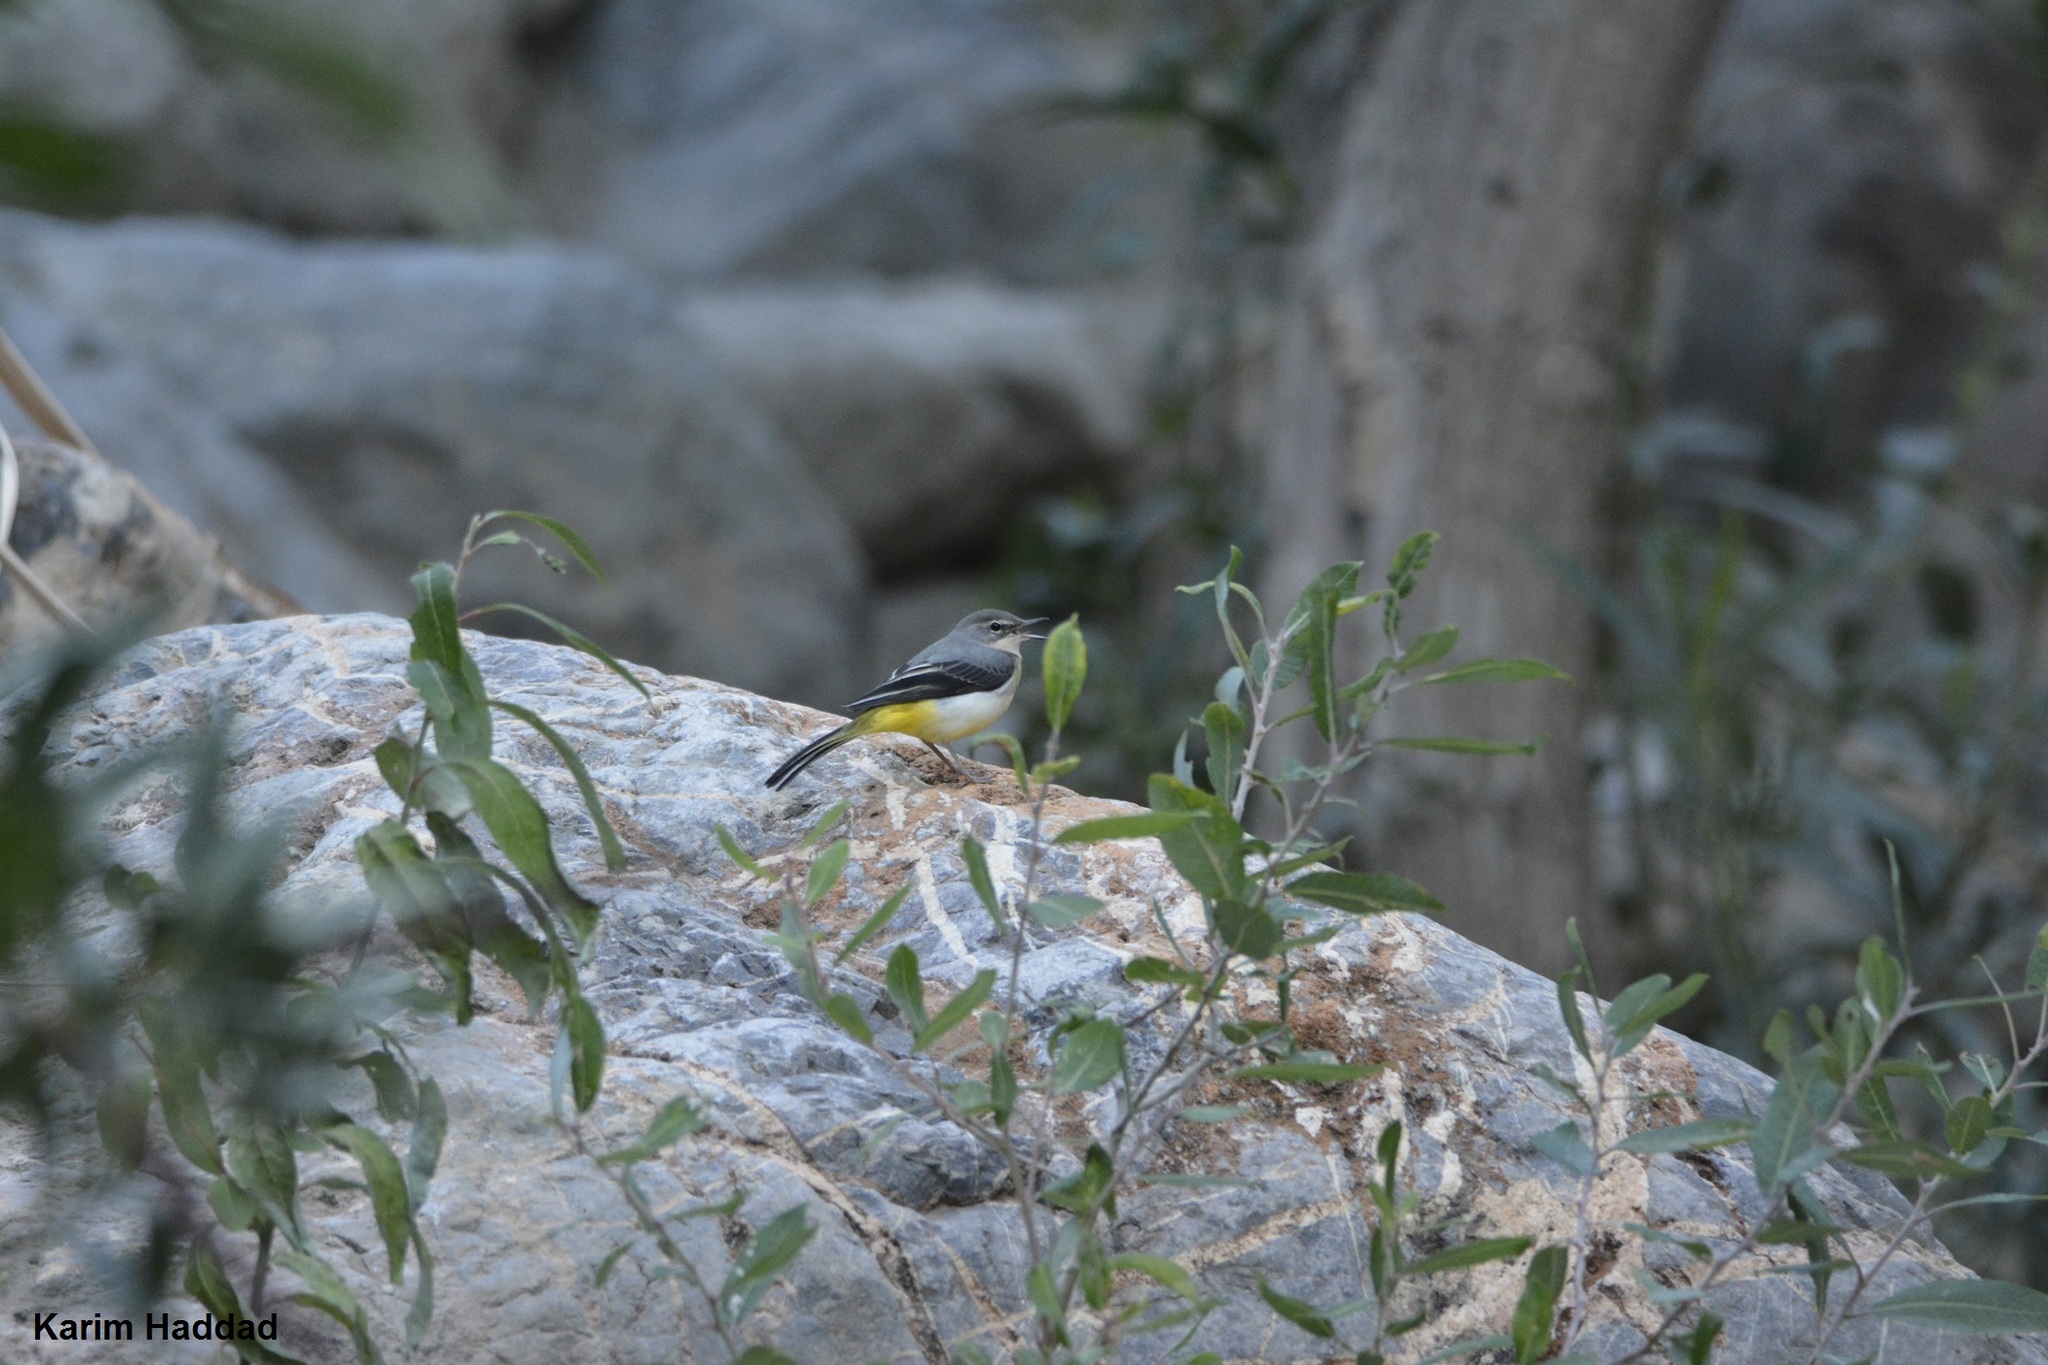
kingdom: Animalia
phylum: Chordata
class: Aves
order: Passeriformes
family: Motacillidae
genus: Motacilla
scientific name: Motacilla cinerea
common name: Grey wagtail
